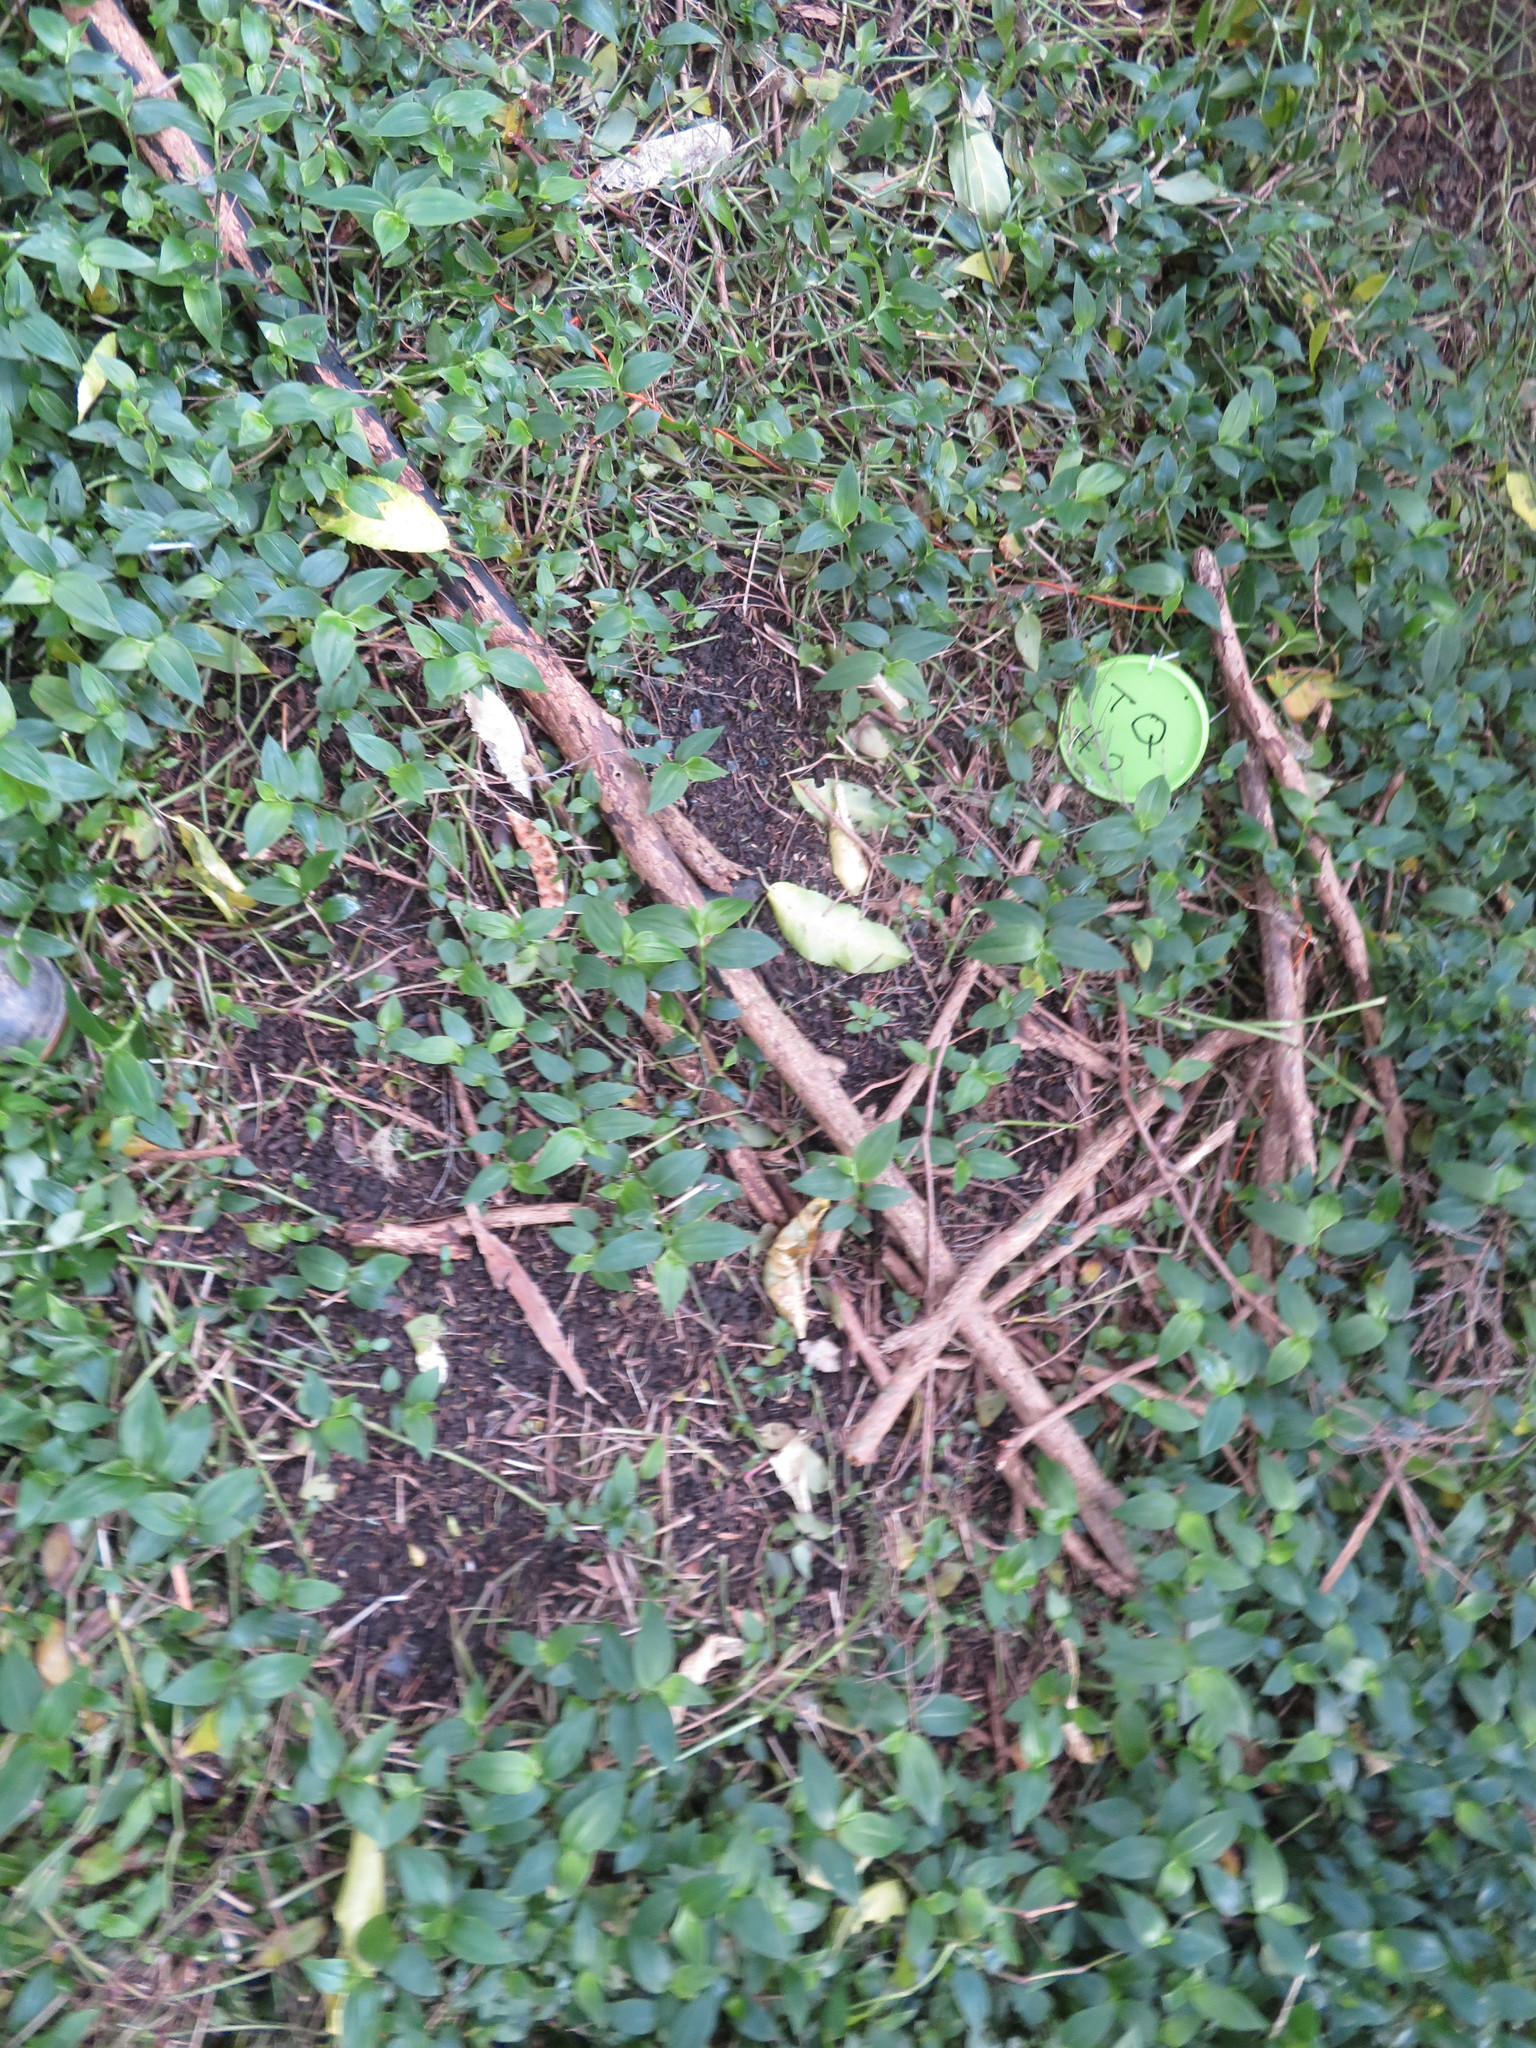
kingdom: Plantae
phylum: Tracheophyta
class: Magnoliopsida
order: Lamiales
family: Oleaceae
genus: Ligustrum
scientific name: Ligustrum lucidum
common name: Glossy privet
